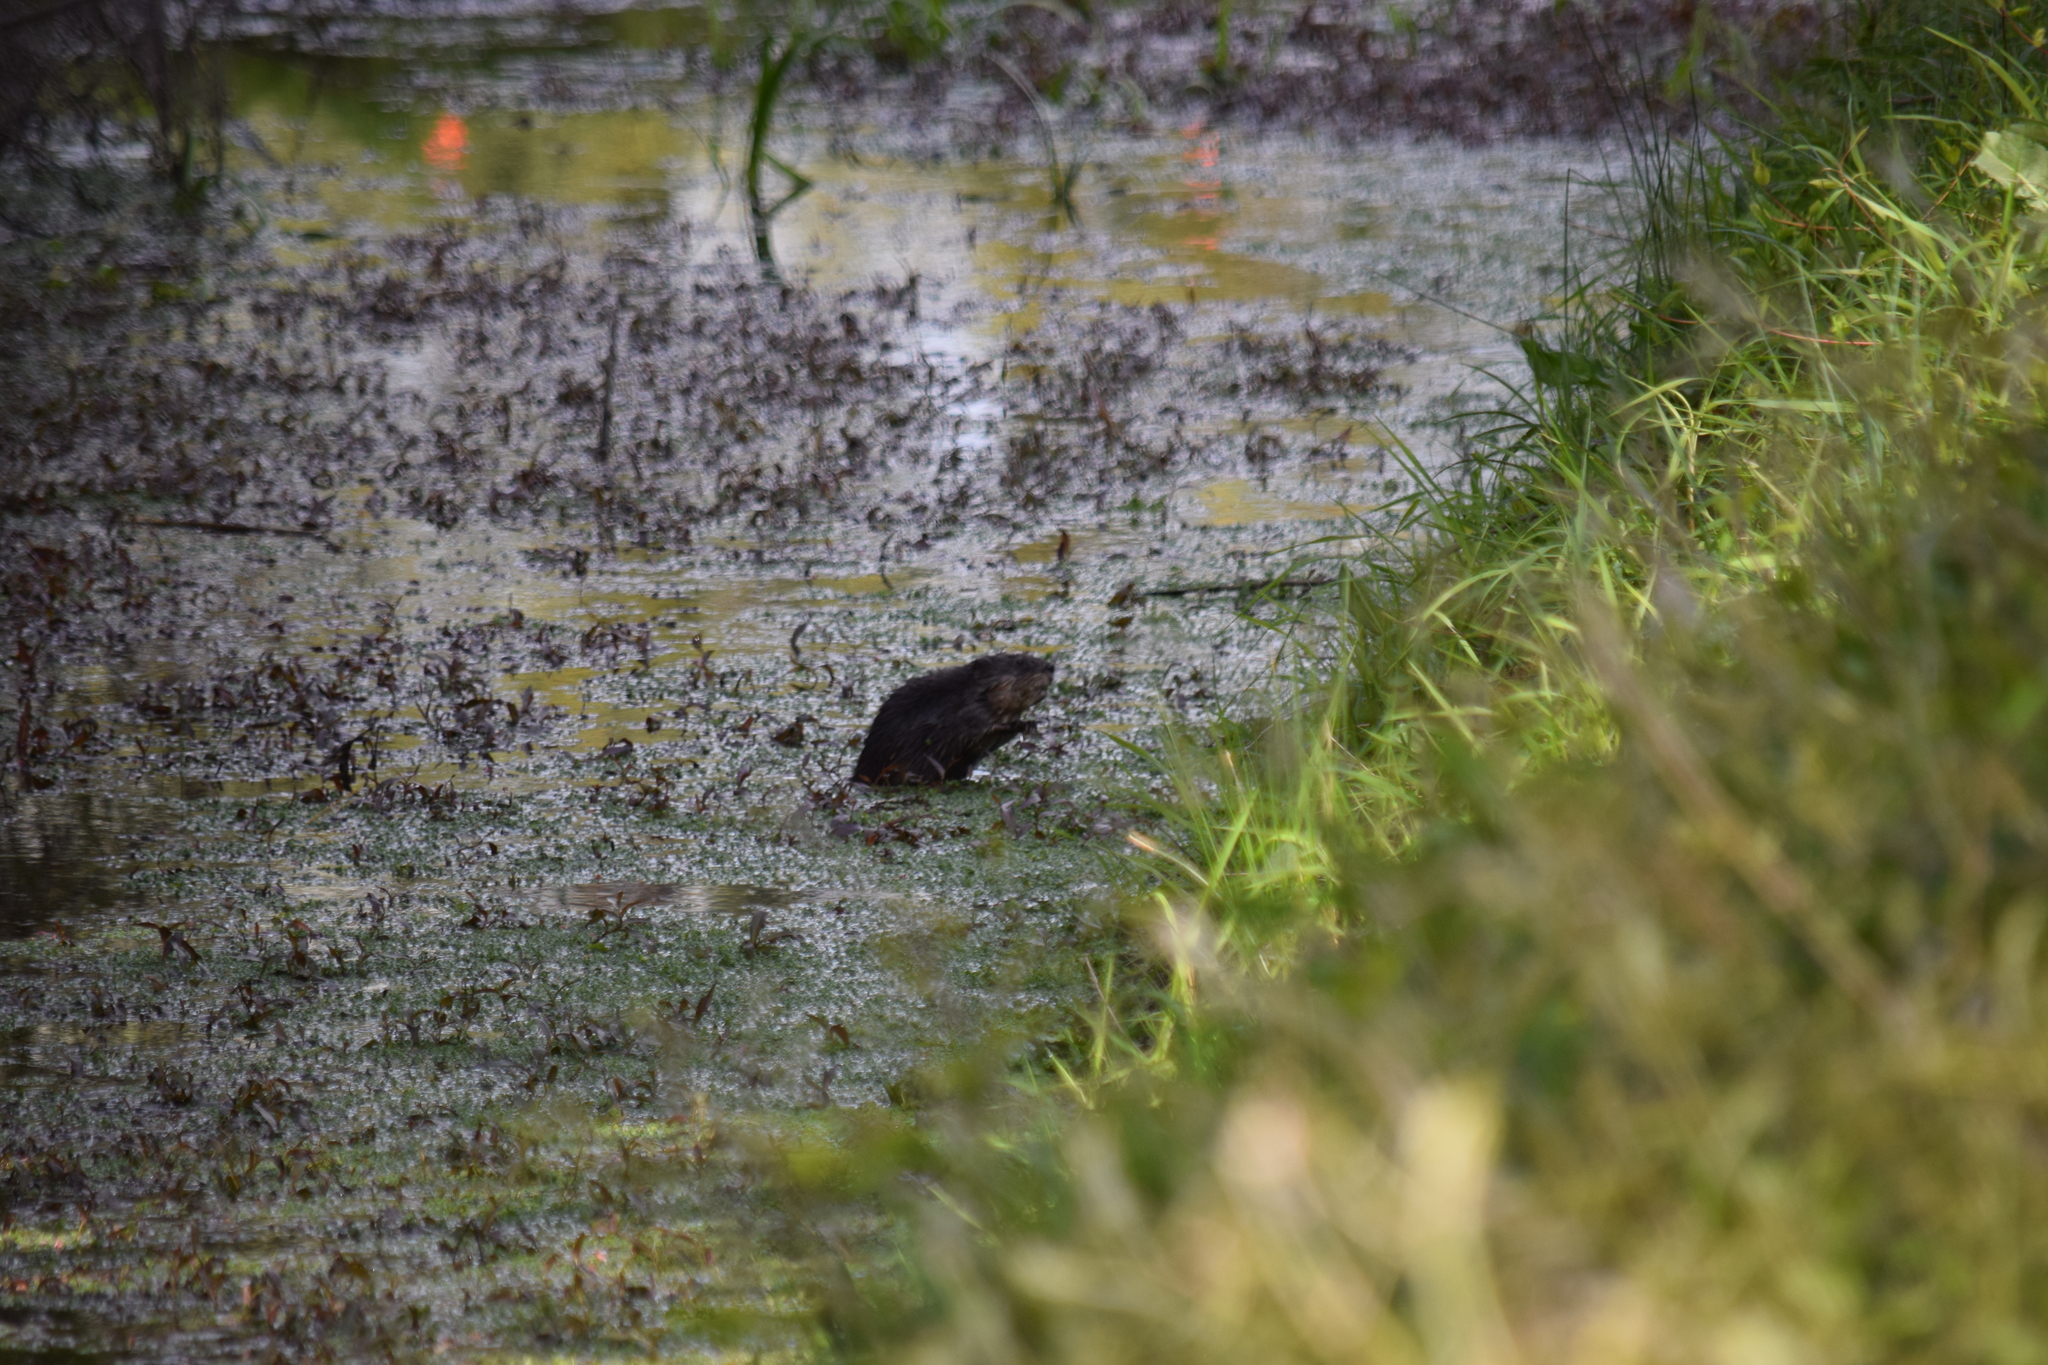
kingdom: Animalia
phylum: Chordata
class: Mammalia
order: Rodentia
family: Cricetidae
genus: Ondatra
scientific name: Ondatra zibethicus
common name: Muskrat
